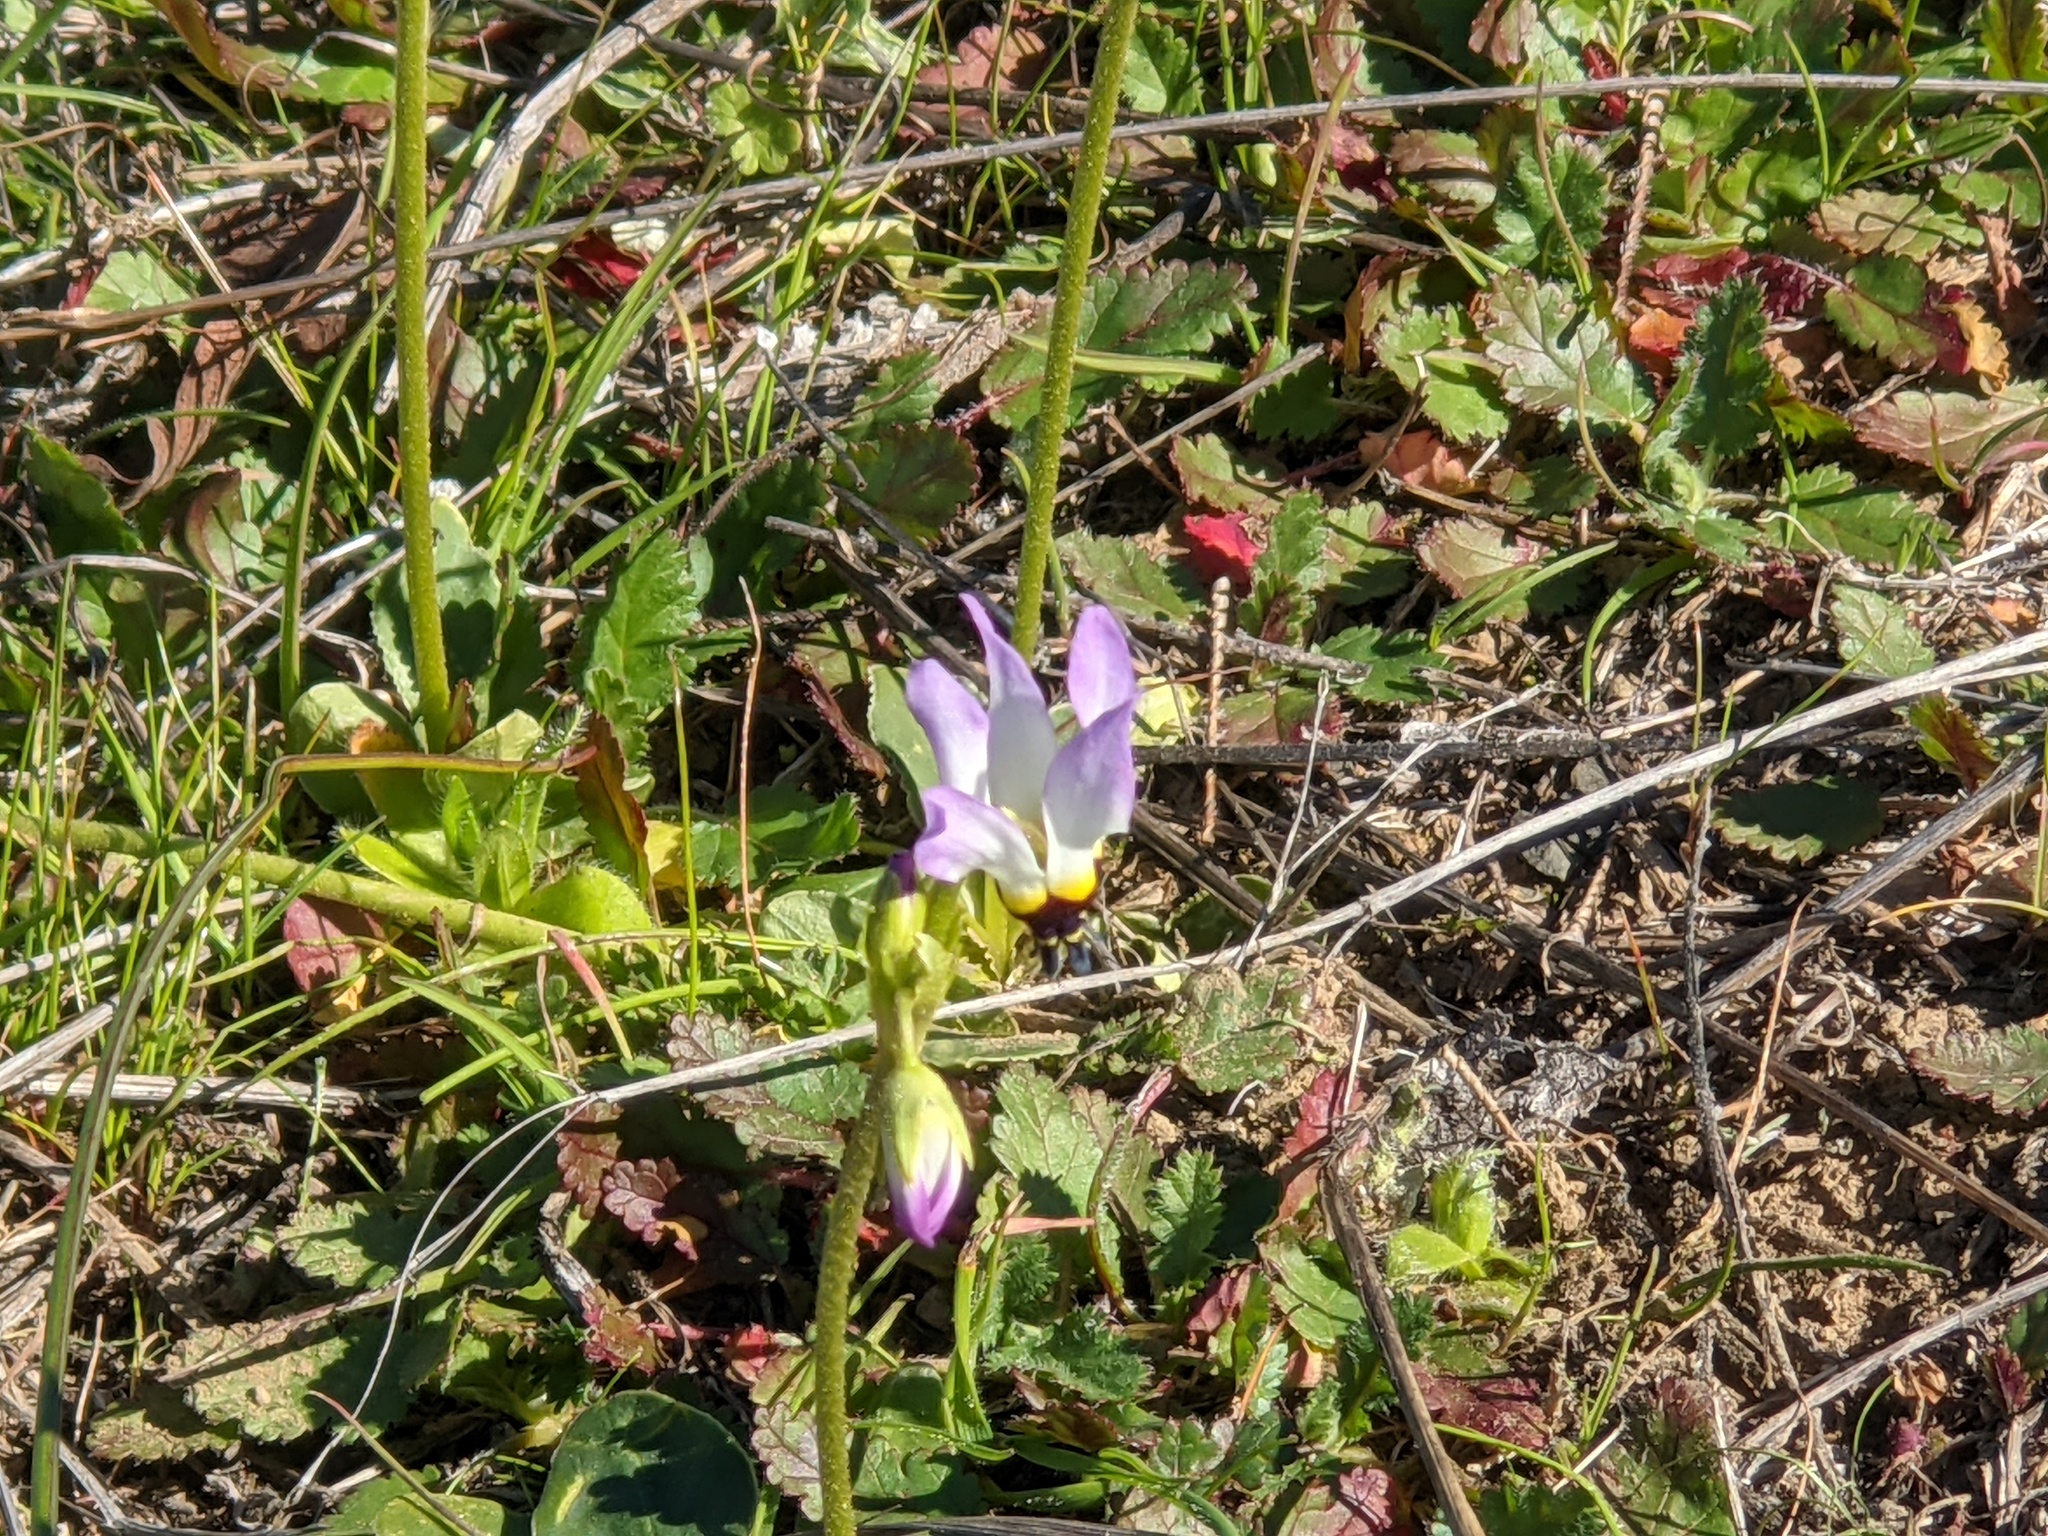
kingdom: Plantae
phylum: Tracheophyta
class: Magnoliopsida
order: Ericales
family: Primulaceae
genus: Dodecatheon
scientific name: Dodecatheon clevelandii
